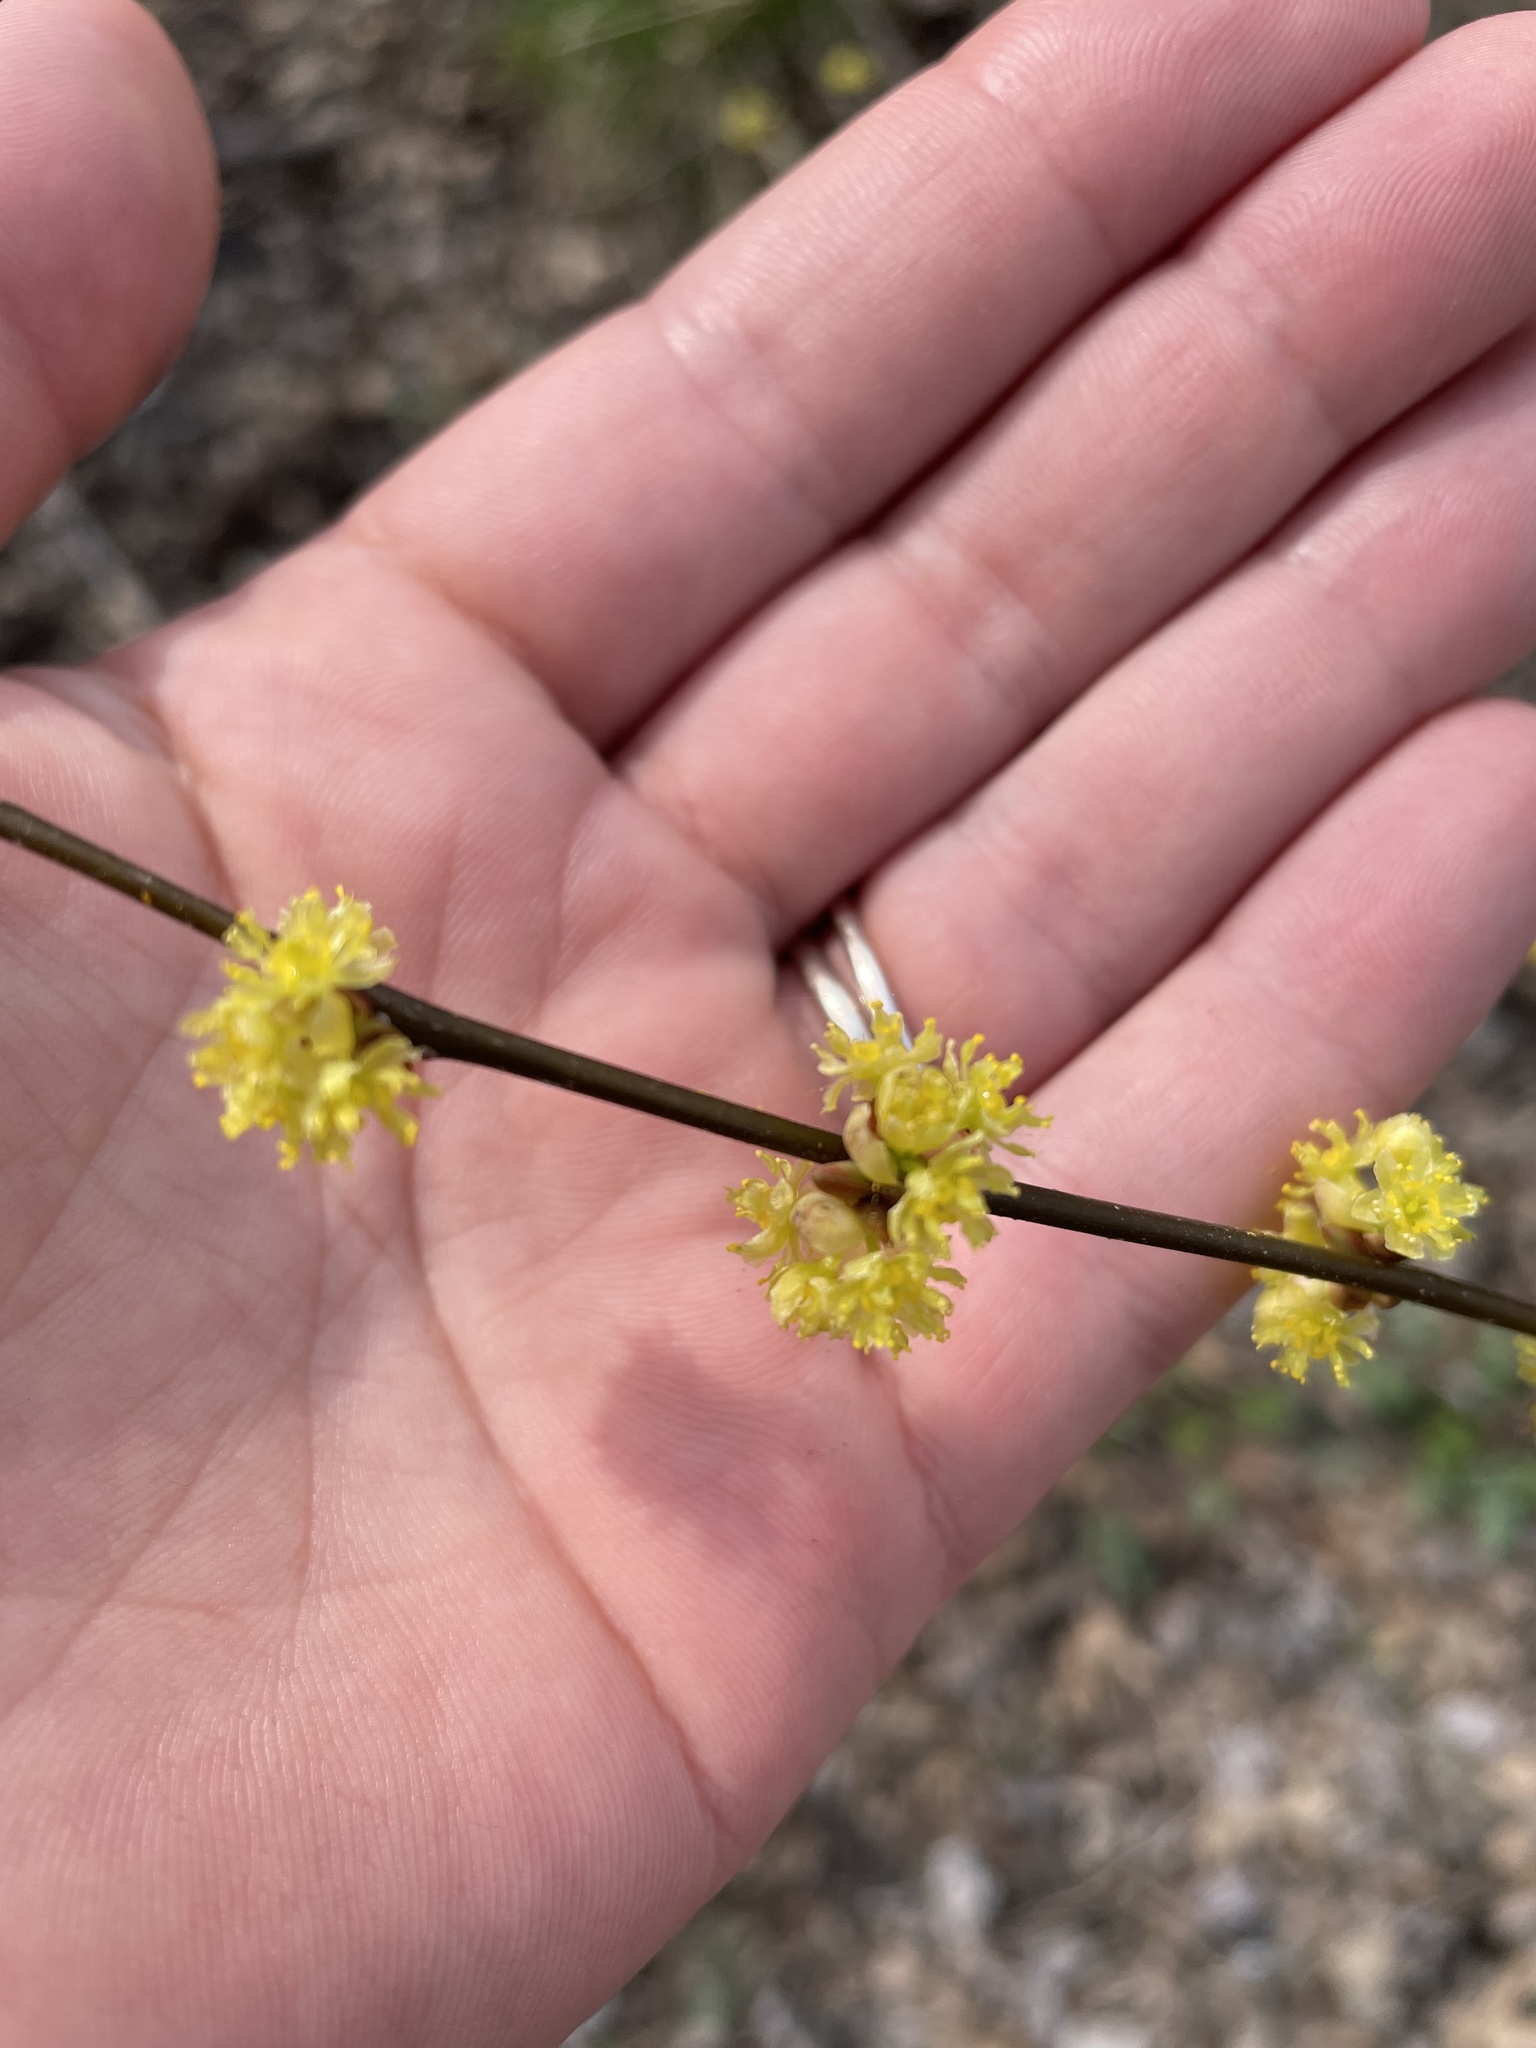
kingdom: Plantae
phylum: Tracheophyta
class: Magnoliopsida
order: Laurales
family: Lauraceae
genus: Lindera
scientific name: Lindera benzoin
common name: Spicebush
